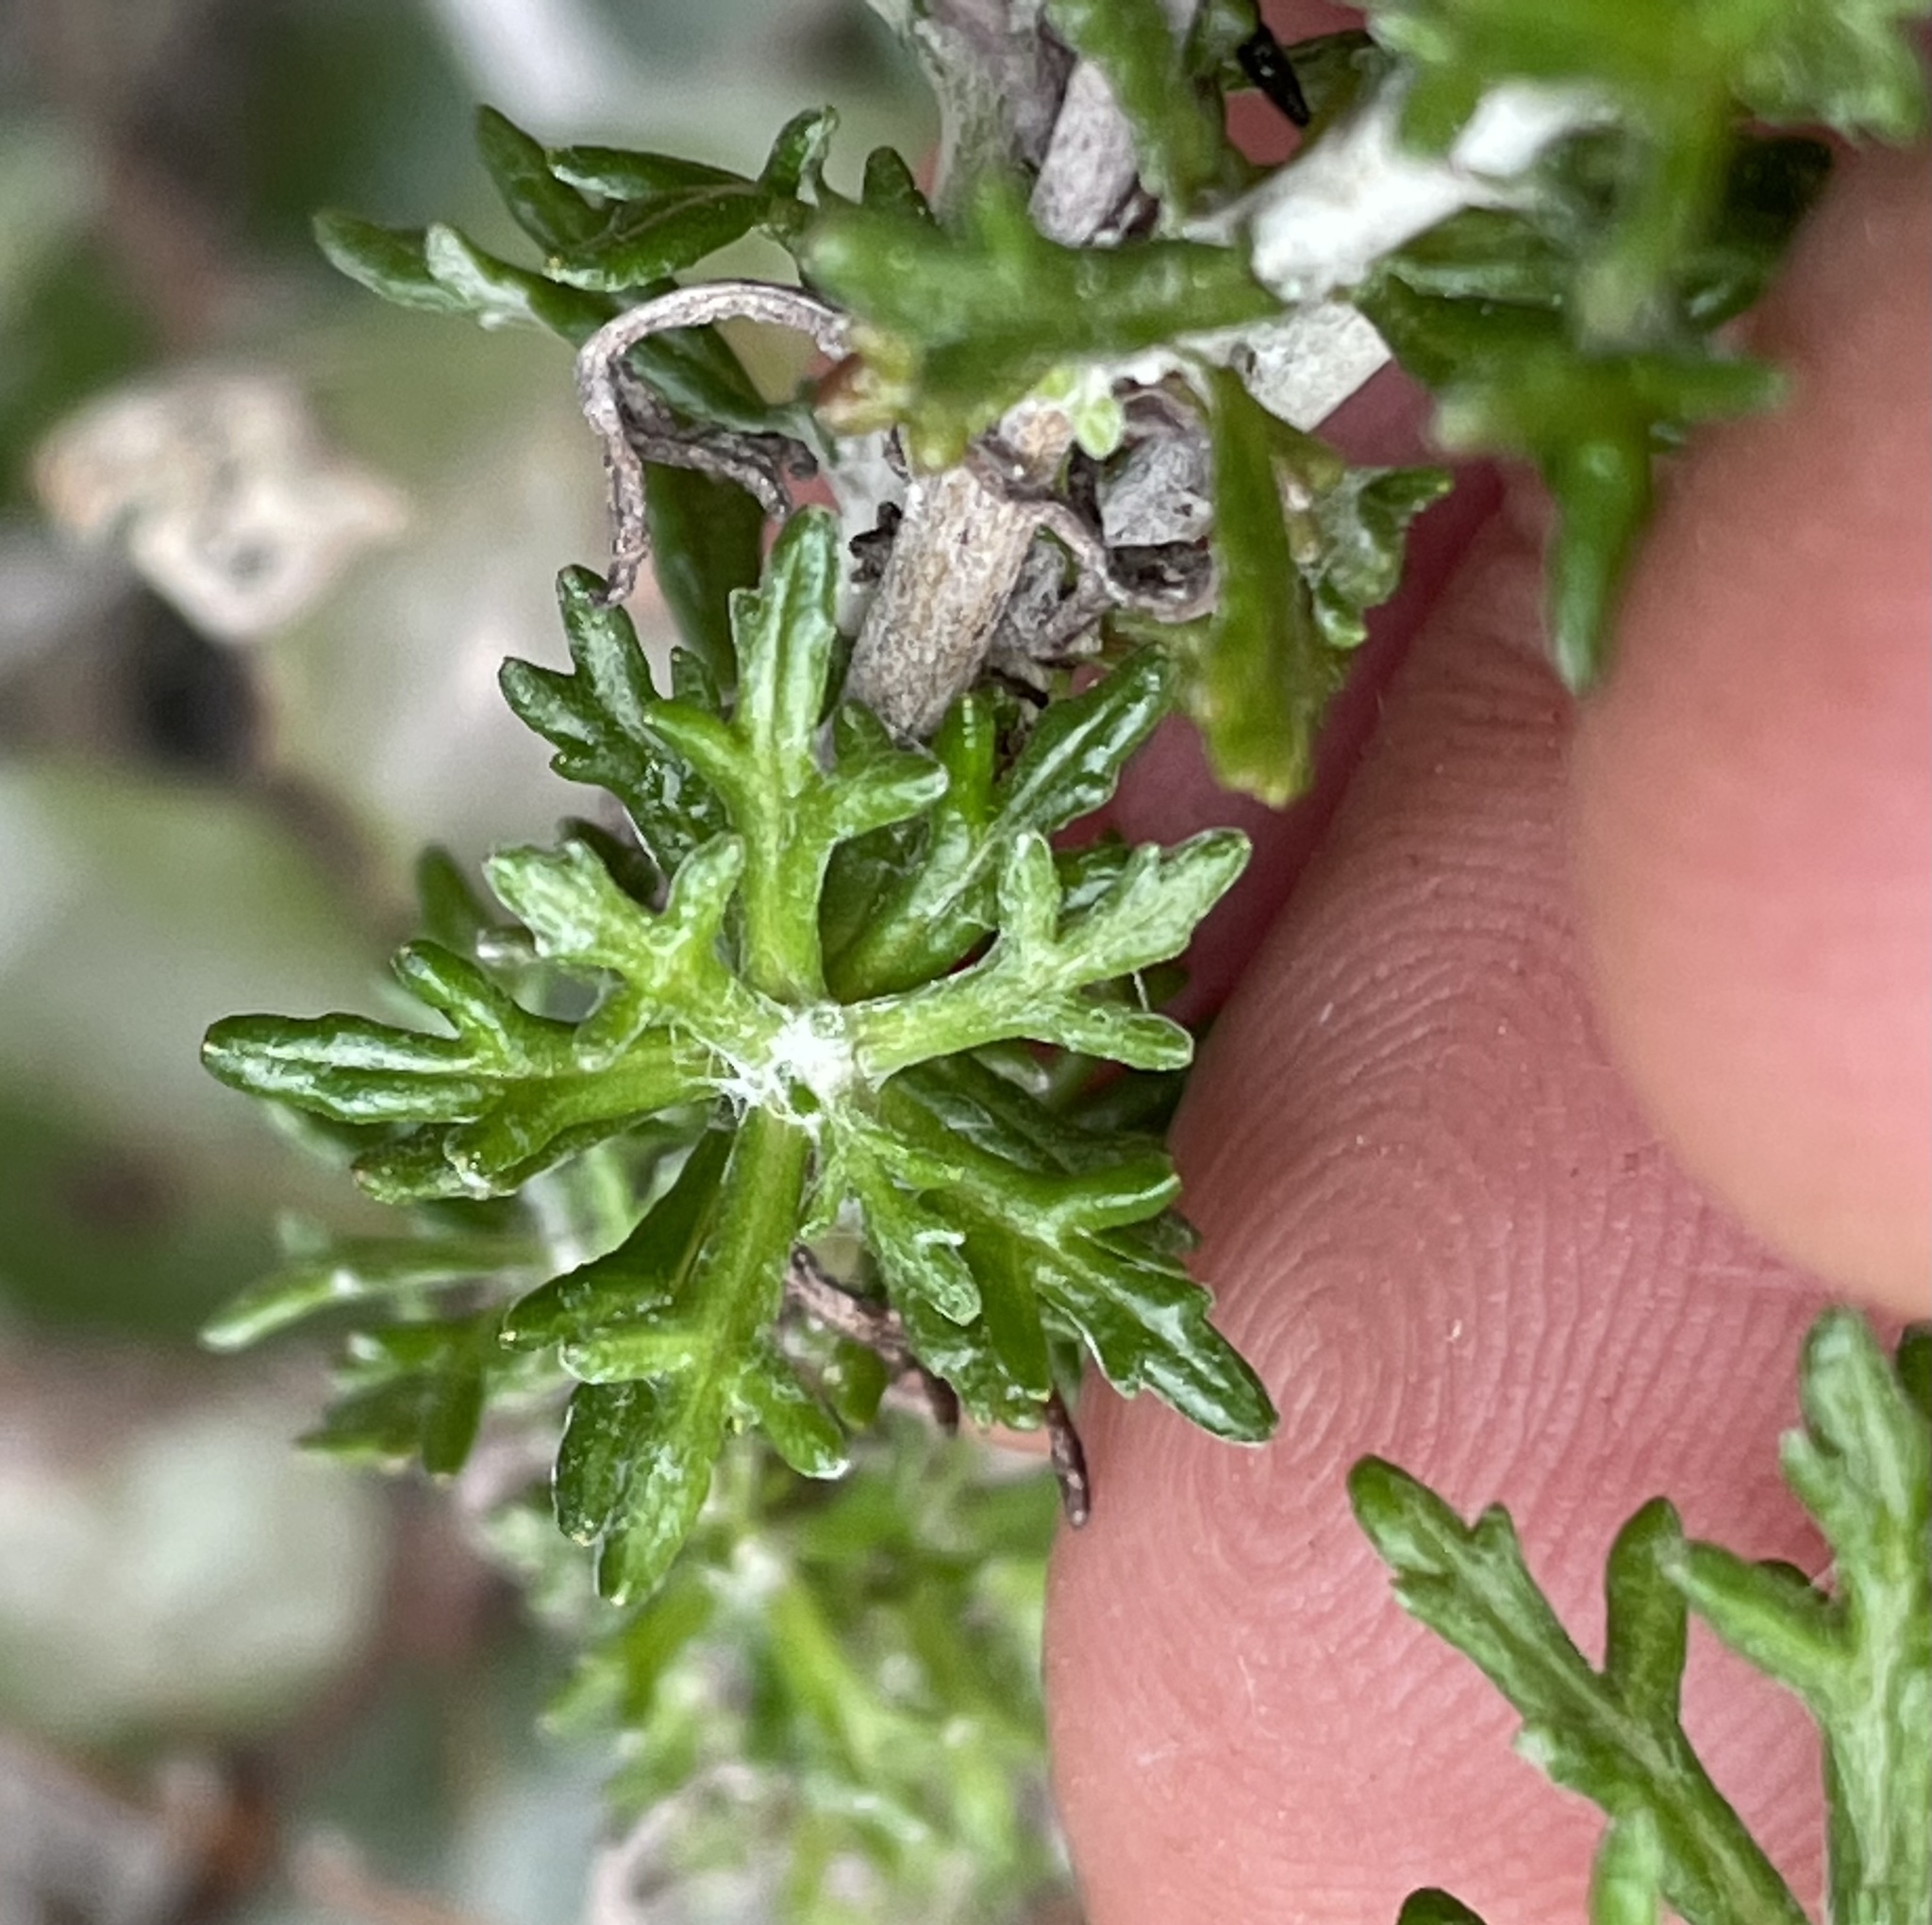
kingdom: Plantae
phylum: Tracheophyta
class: Magnoliopsida
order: Asterales
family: Asteraceae
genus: Eriophyllum
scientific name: Eriophyllum confertiflorum
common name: Golden-yarrow
